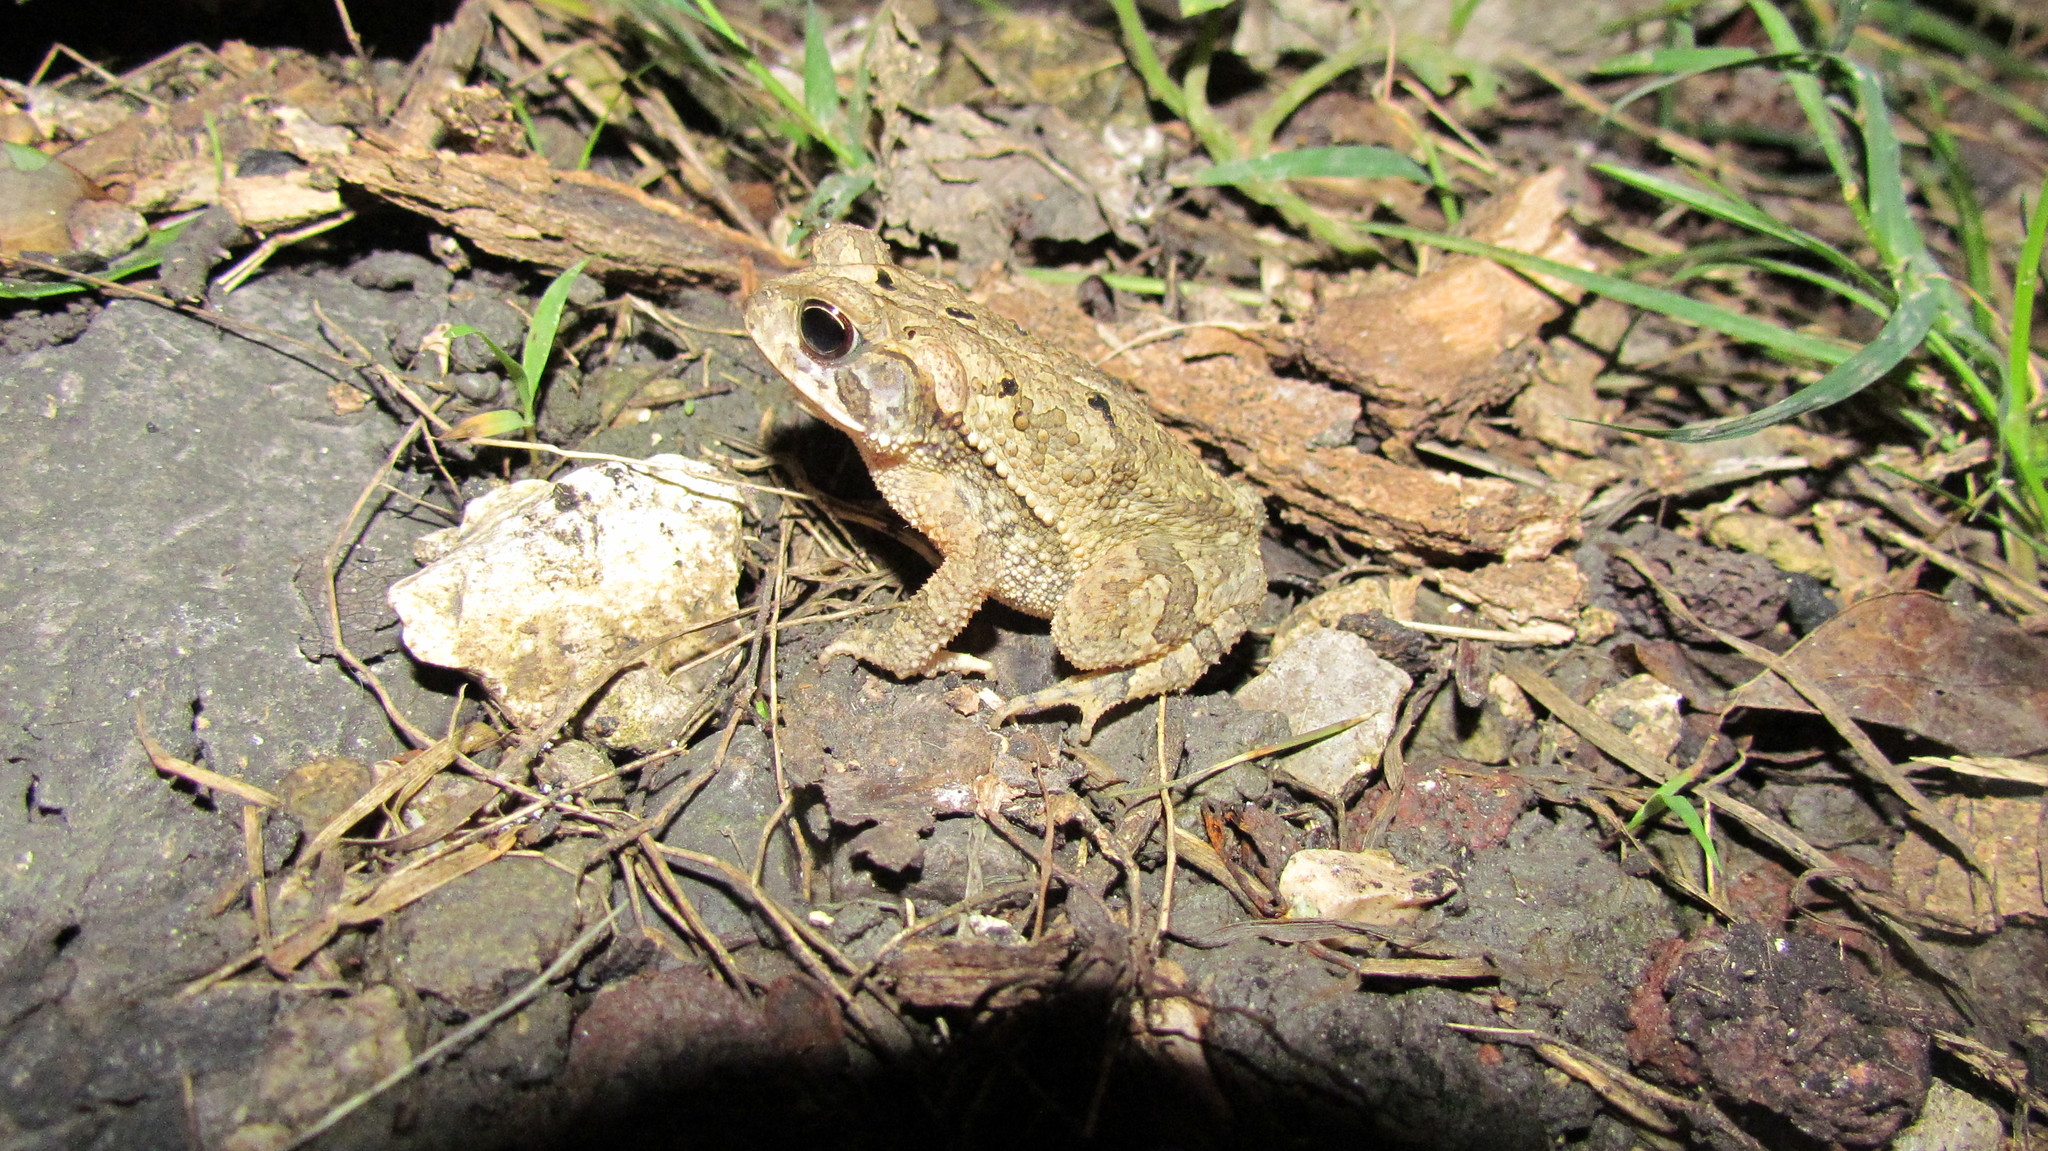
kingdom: Animalia
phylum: Chordata
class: Amphibia
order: Anura
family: Bufonidae
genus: Incilius
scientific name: Incilius valliceps
